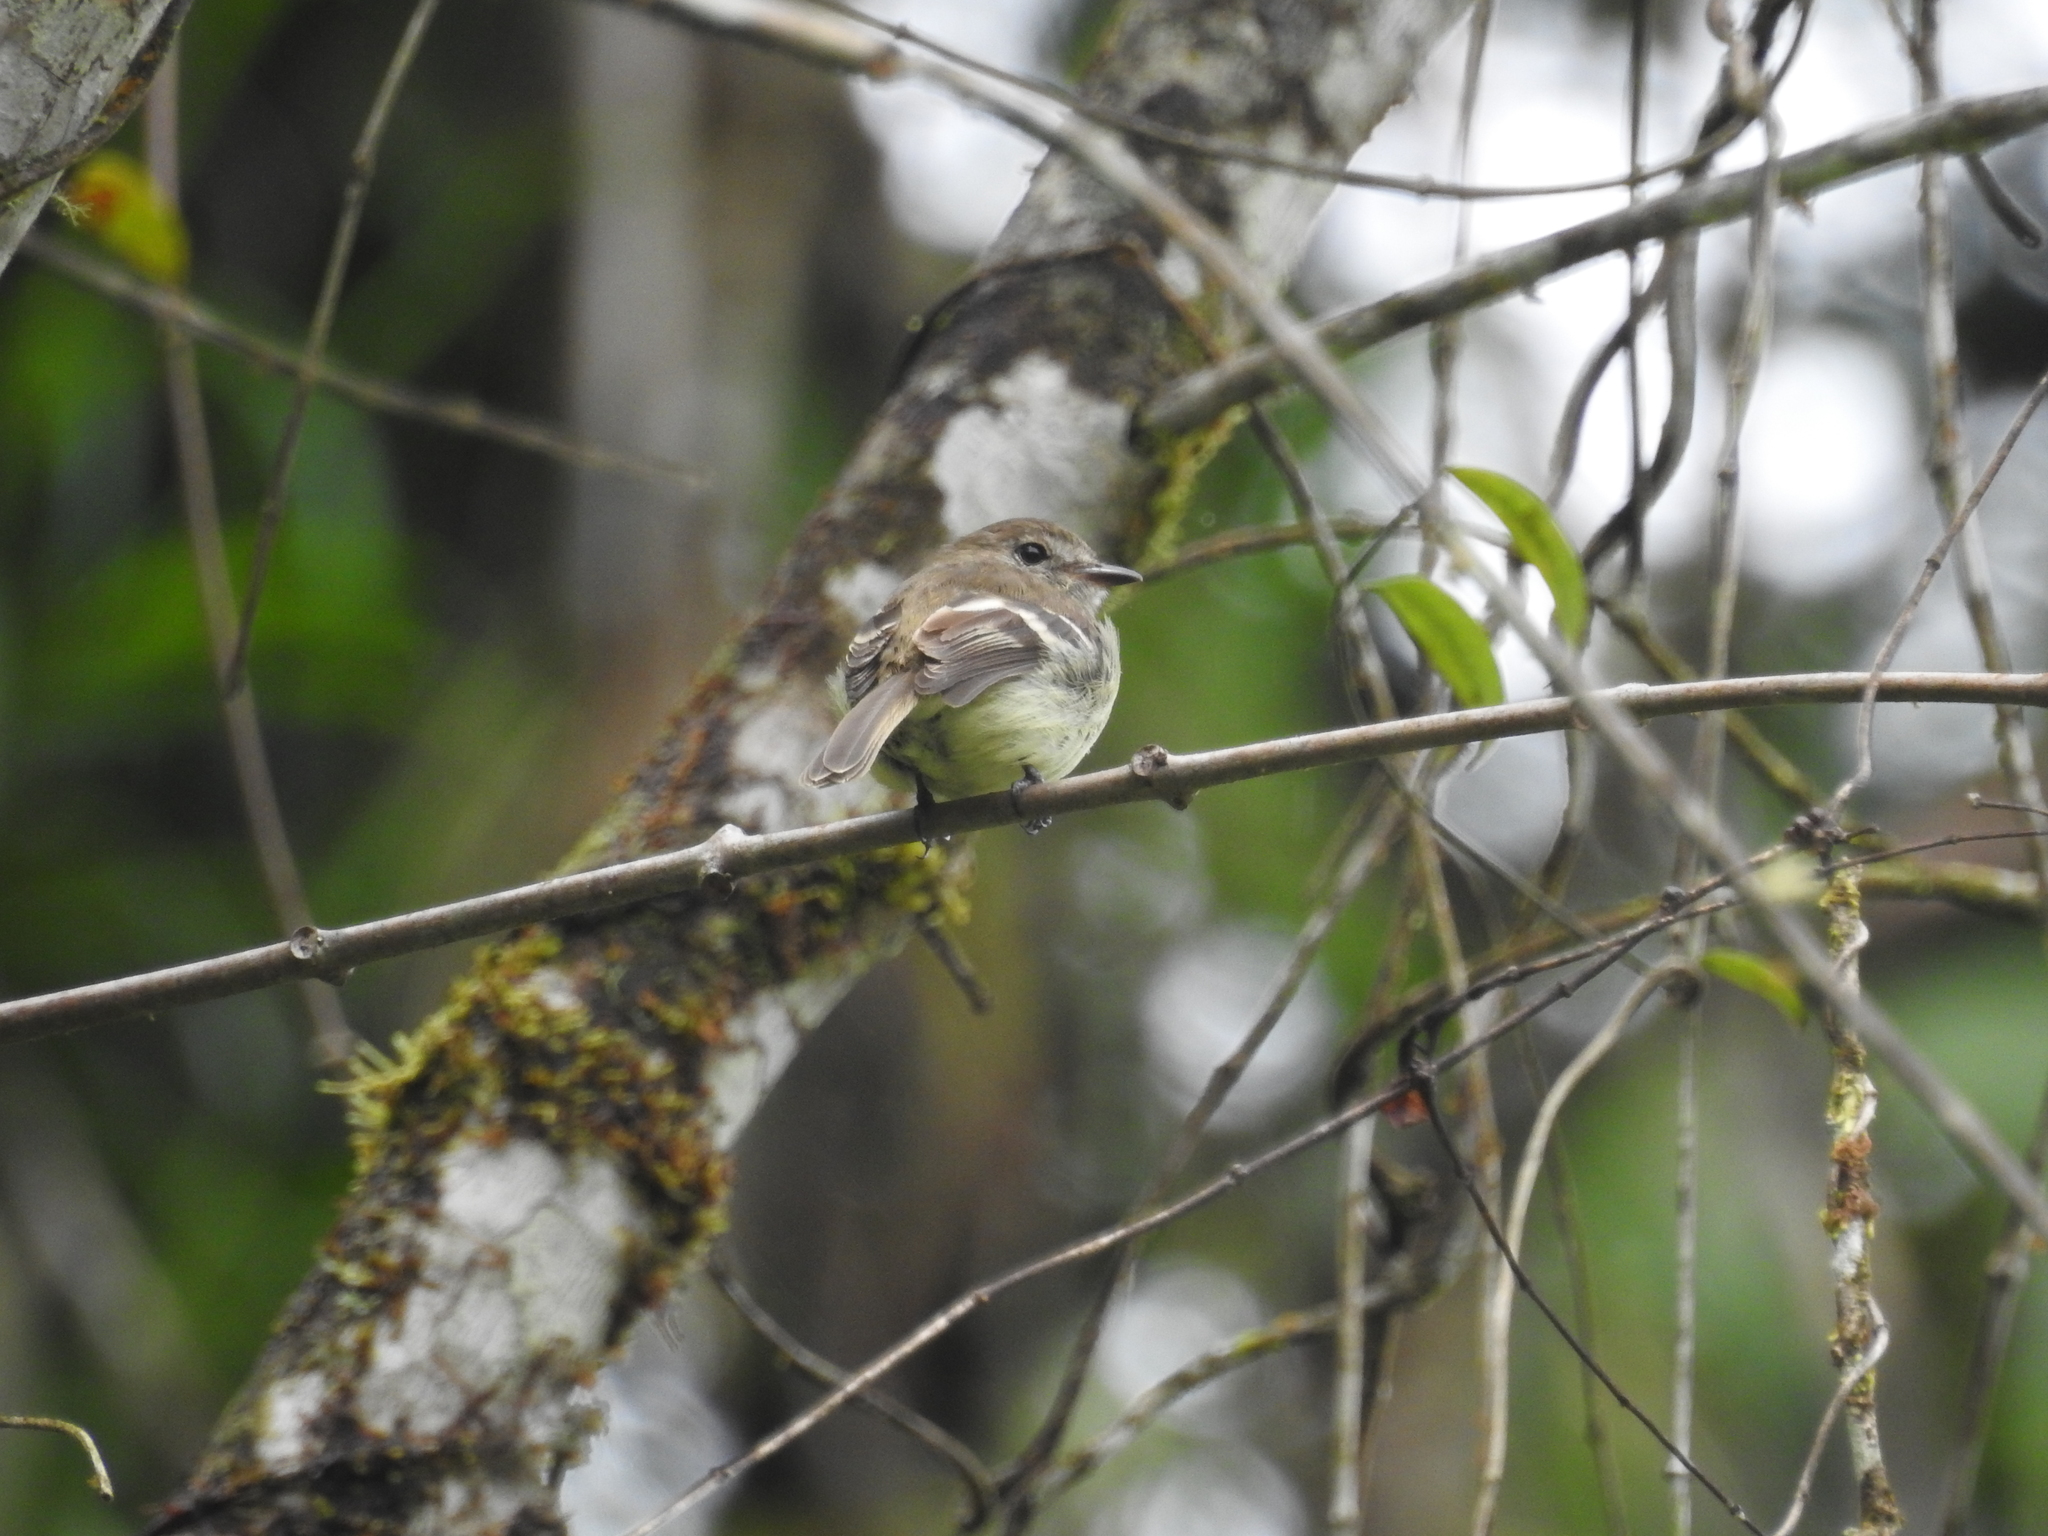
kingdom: Animalia
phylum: Chordata
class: Aves
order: Passeriformes
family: Tyrannidae
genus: Myiophobus
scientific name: Myiophobus cryptoxanthus
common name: Olive-chested flycatcher
